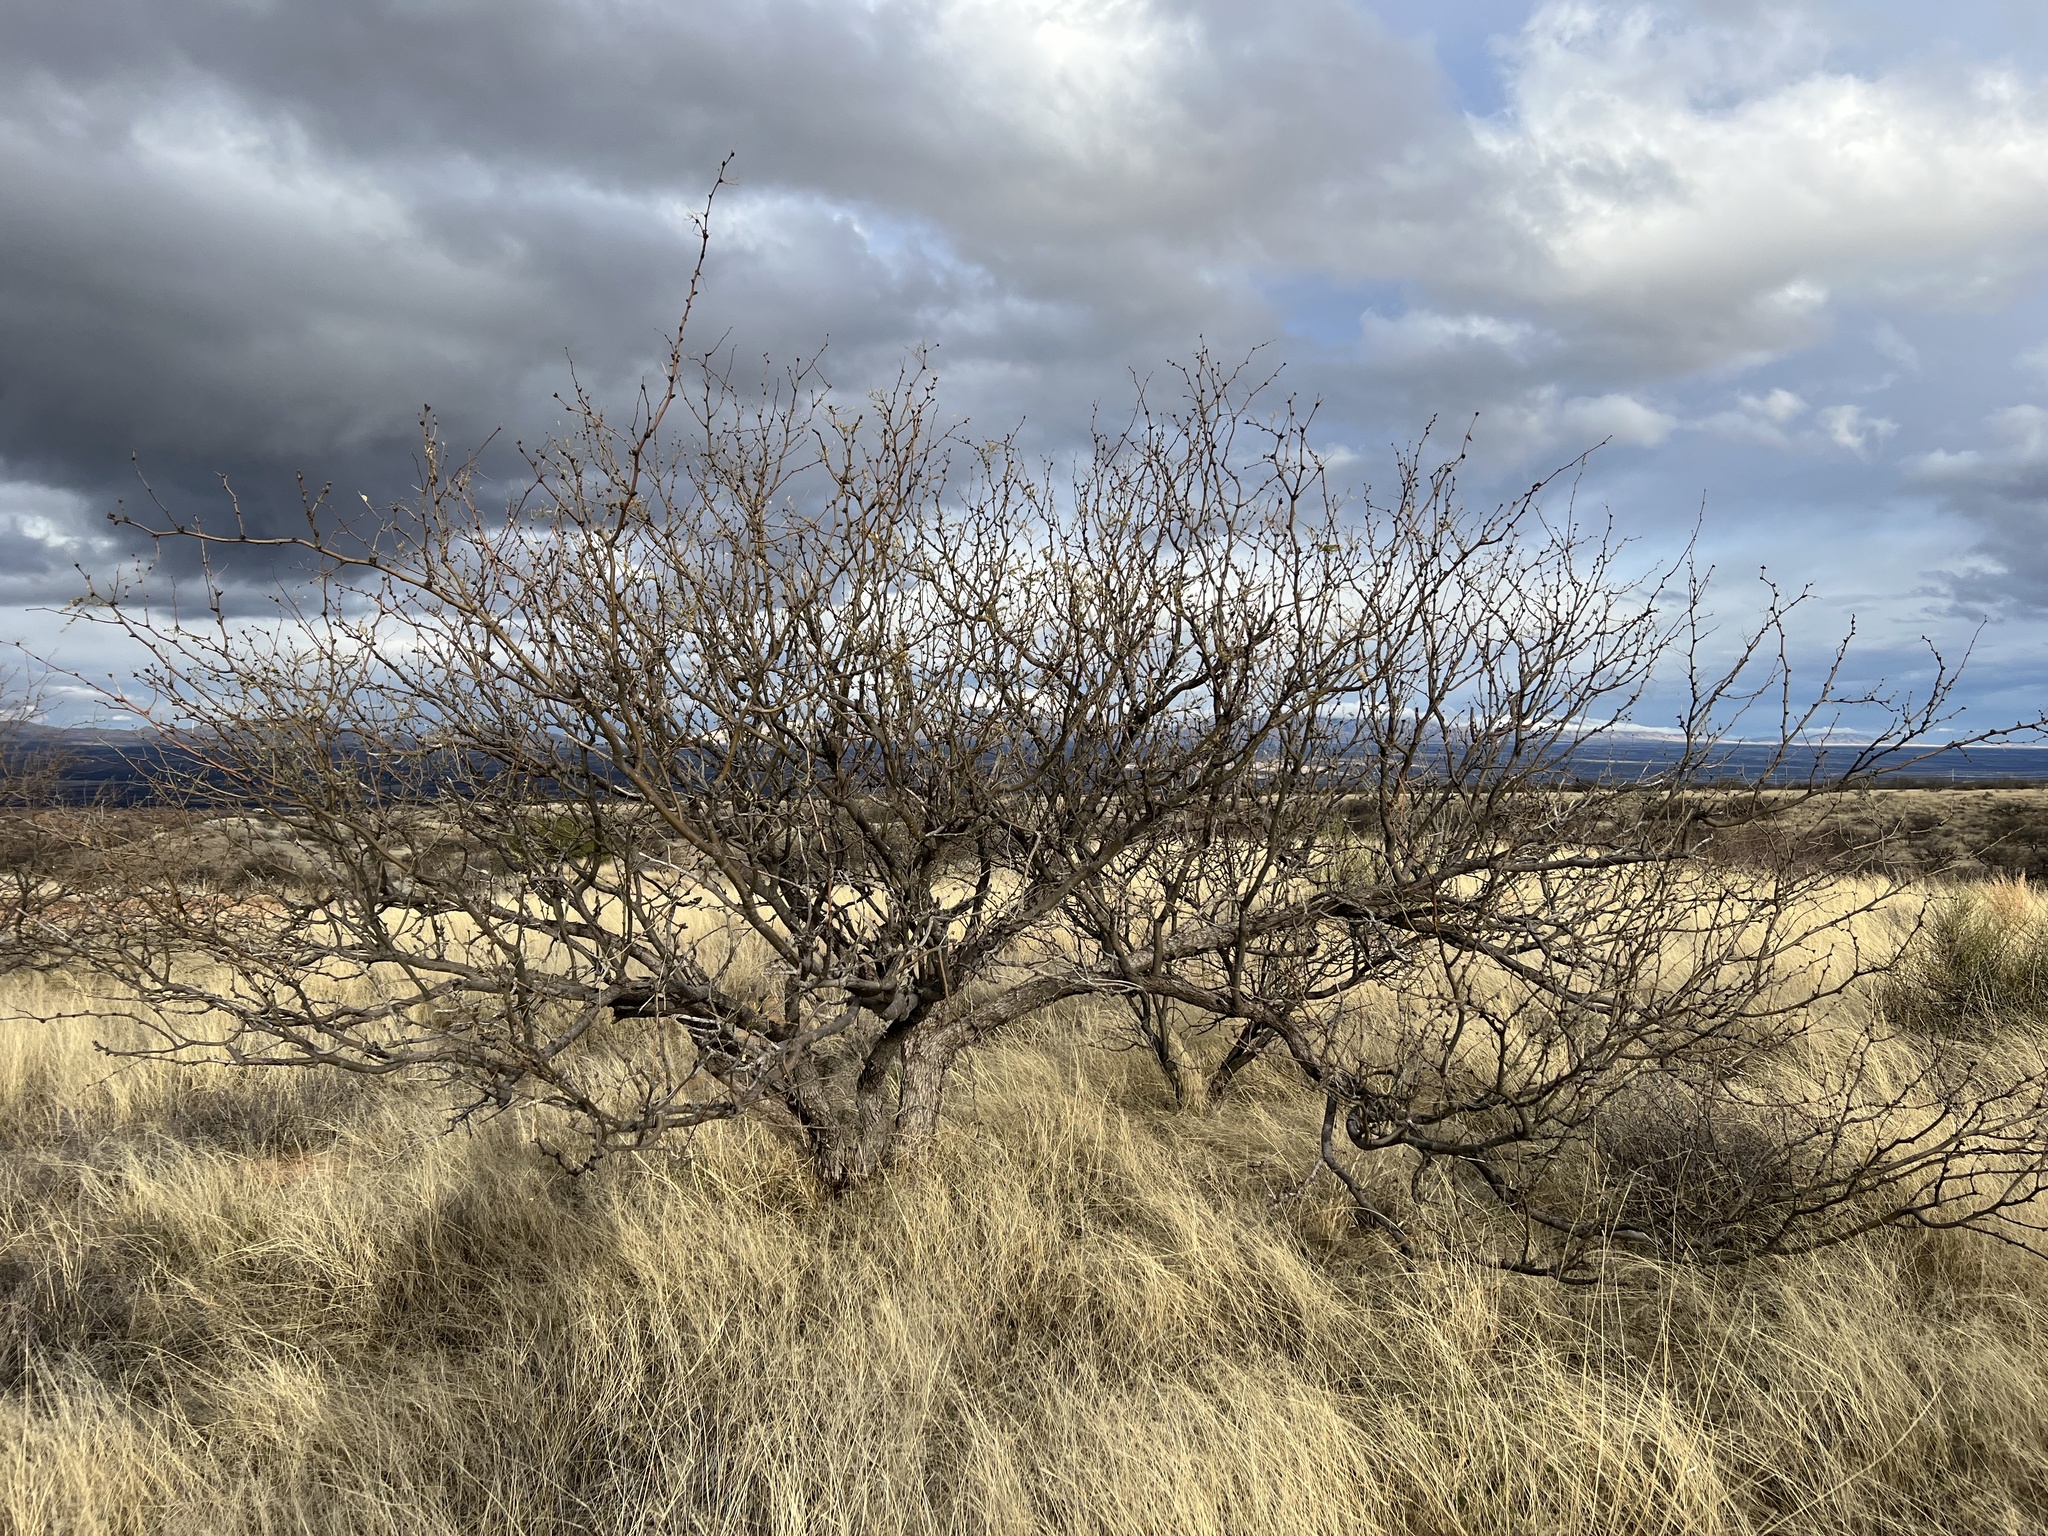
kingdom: Plantae
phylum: Tracheophyta
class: Magnoliopsida
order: Fabales
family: Fabaceae
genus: Prosopis
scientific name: Prosopis velutina
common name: Velvet mesquite
